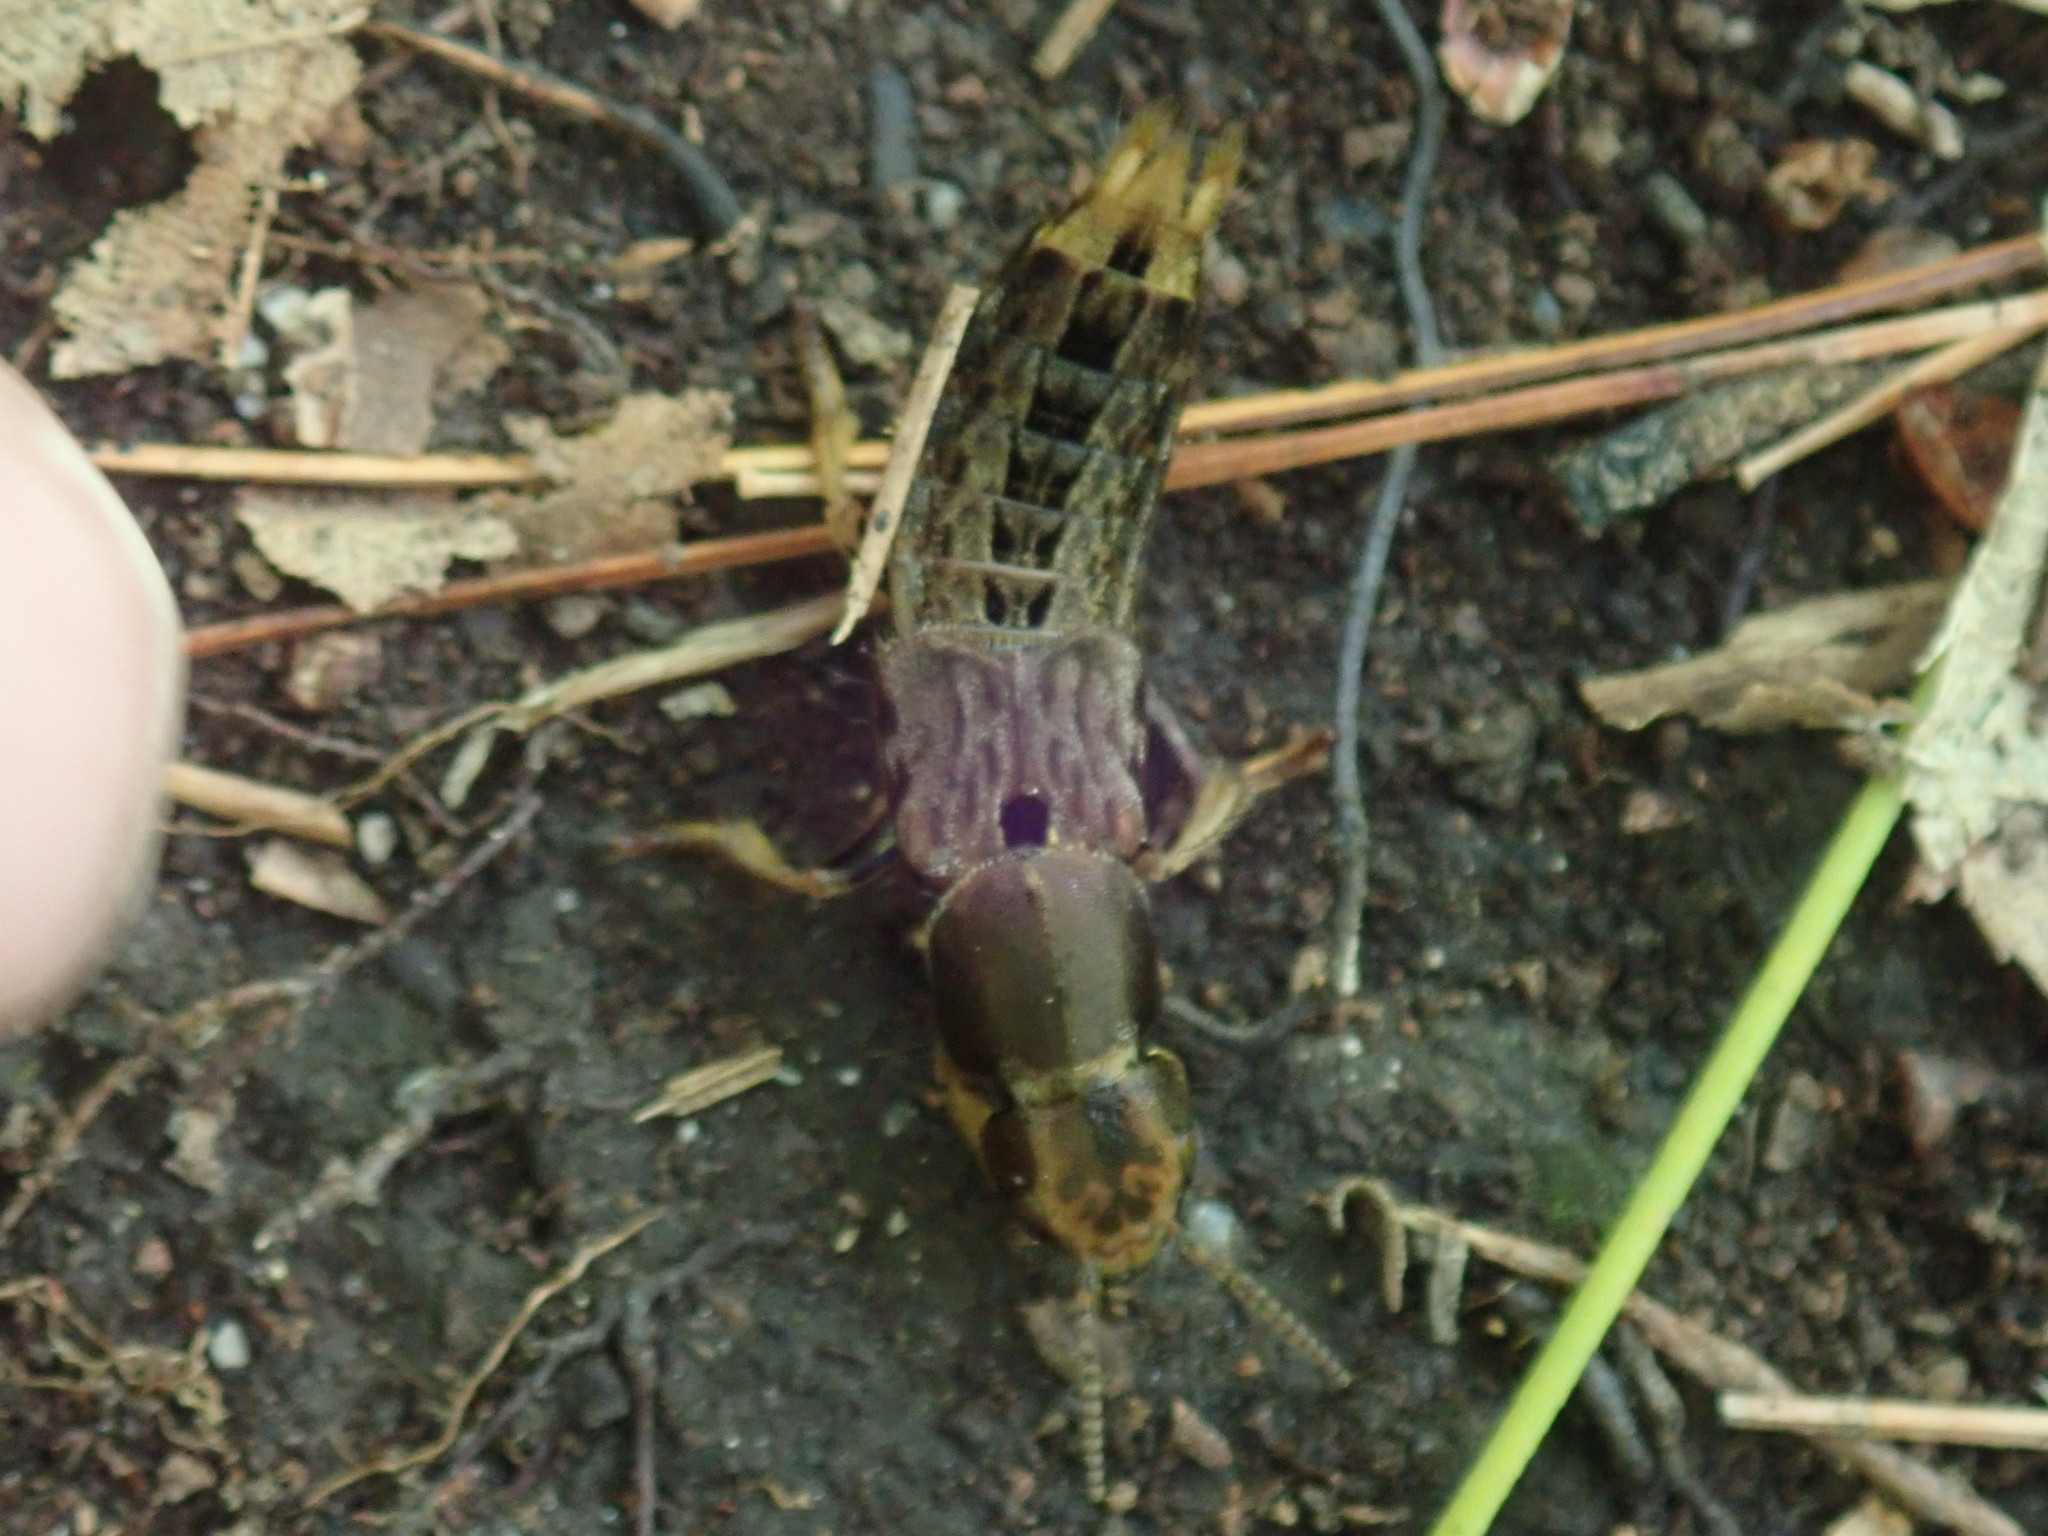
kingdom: Animalia
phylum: Arthropoda
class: Insecta
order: Coleoptera
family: Staphylinidae
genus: Platydracus
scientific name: Platydracus maculosus
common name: Brown rove beetle
